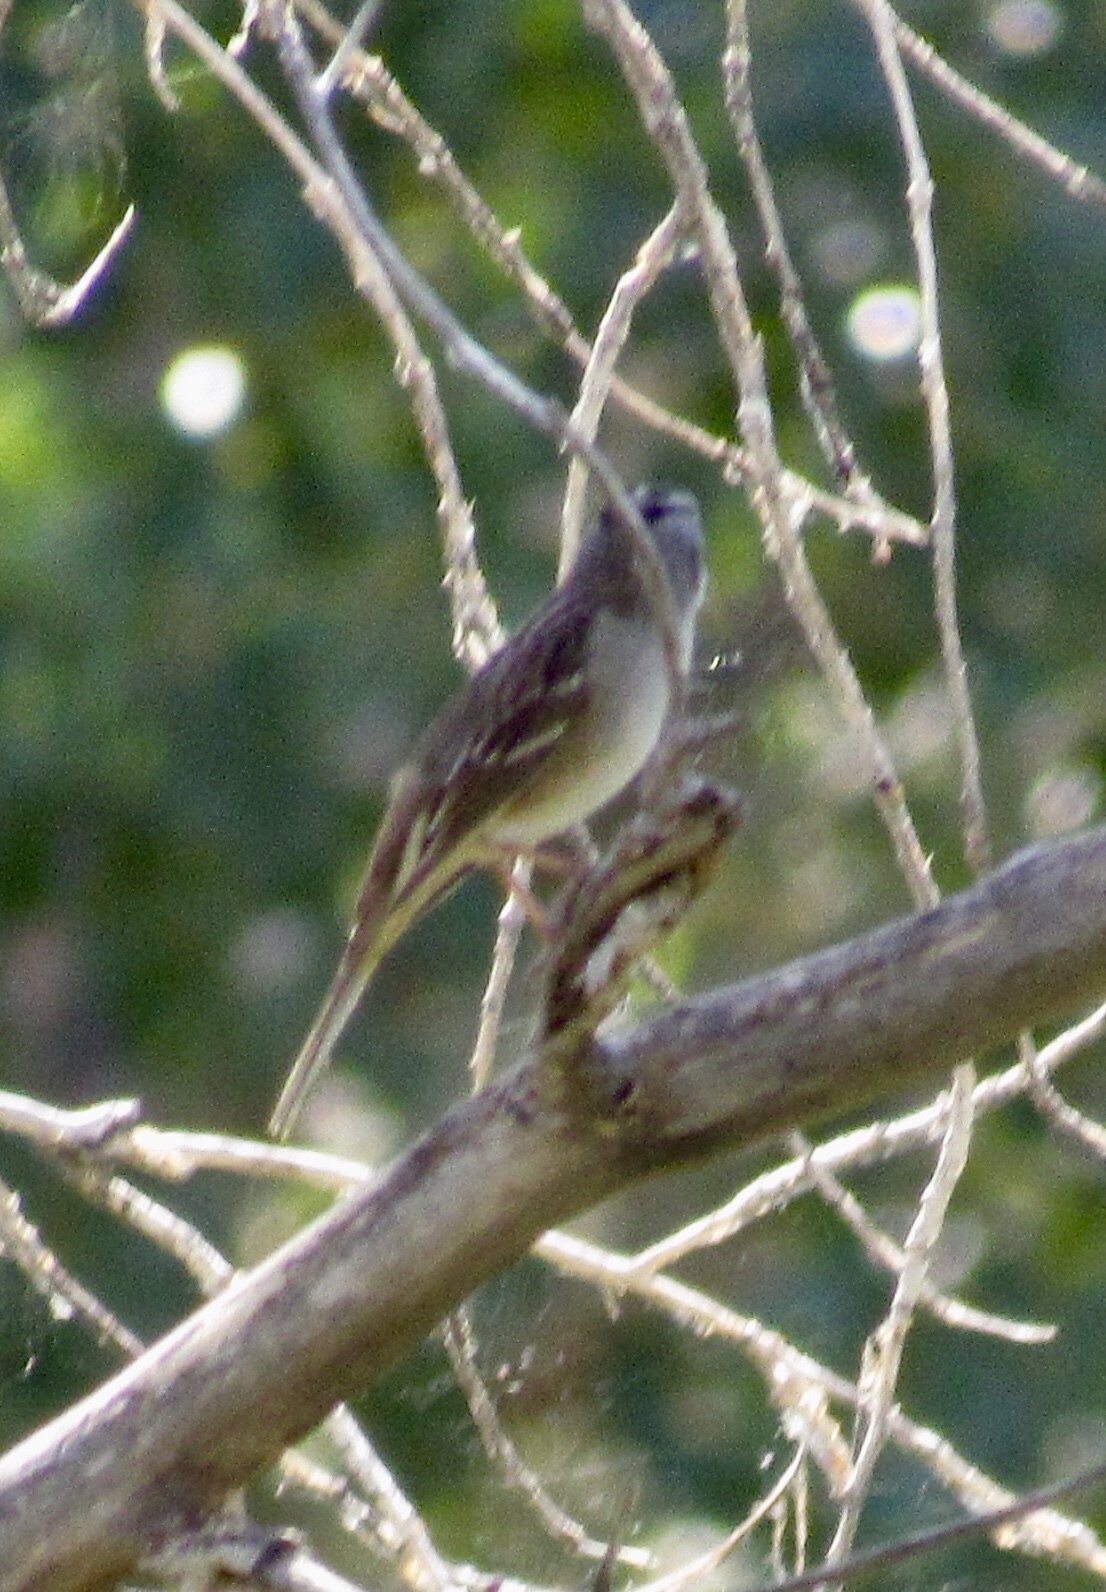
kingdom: Animalia
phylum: Chordata
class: Aves
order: Passeriformes
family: Passerellidae
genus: Zonotrichia
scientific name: Zonotrichia leucophrys
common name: White-crowned sparrow
